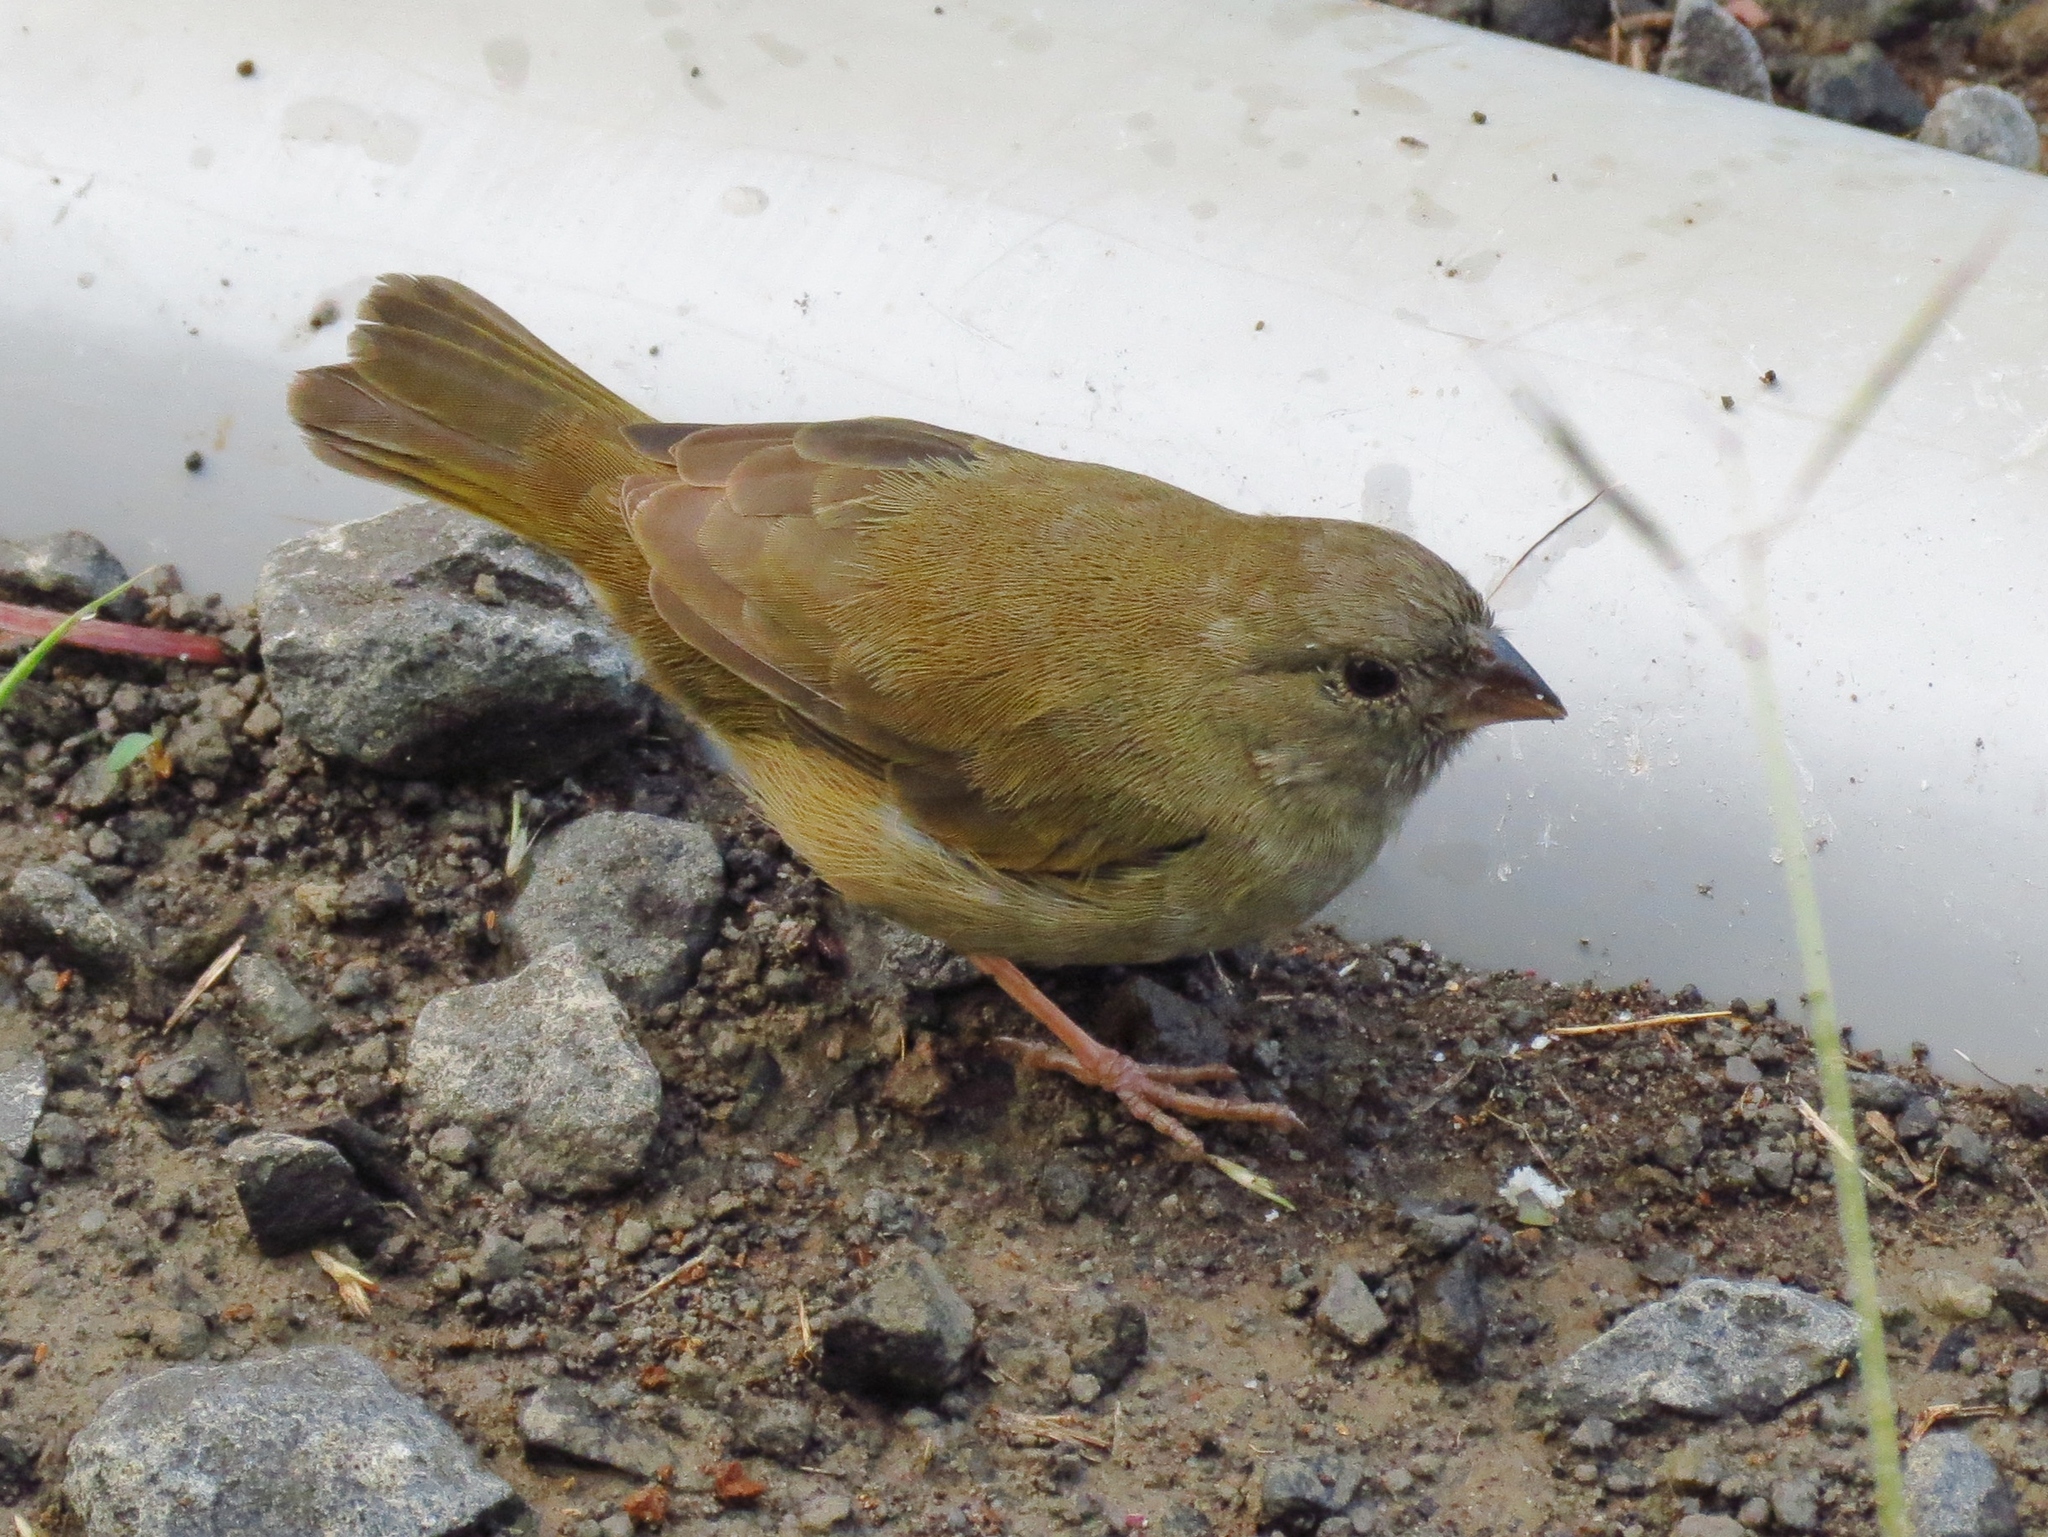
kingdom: Animalia
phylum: Chordata
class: Aves
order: Passeriformes
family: Thraupidae
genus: Melanospiza
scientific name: Melanospiza bicolor
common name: Black-faced grassquit
